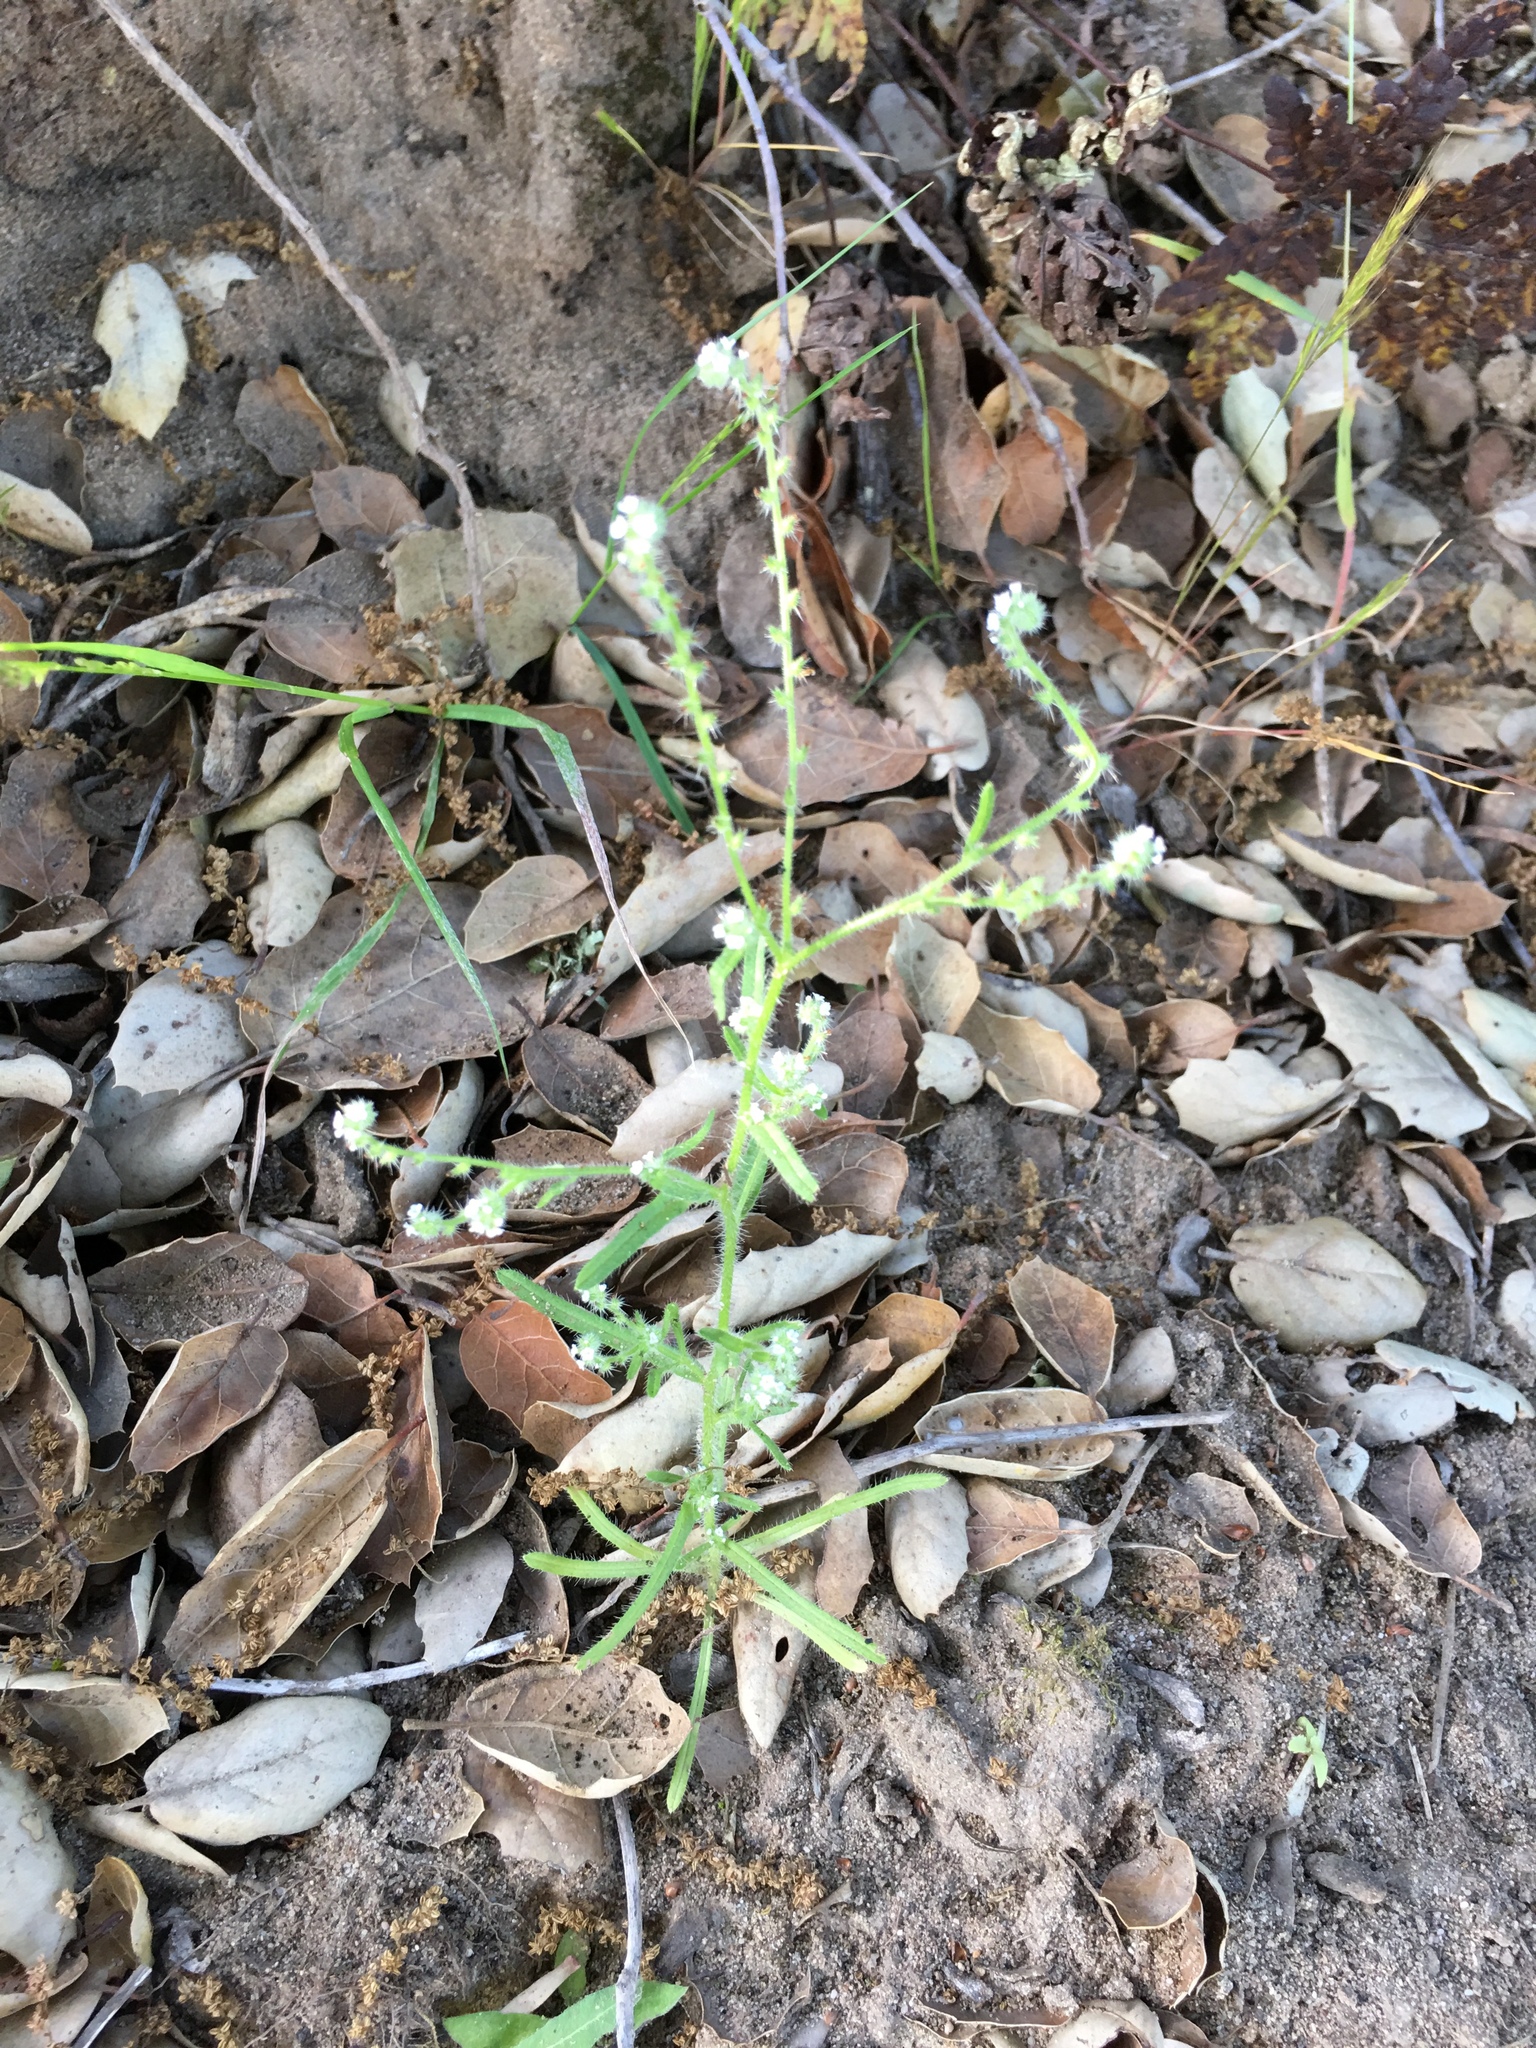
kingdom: Plantae
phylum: Tracheophyta
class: Magnoliopsida
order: Boraginales
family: Boraginaceae
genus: Johnstonella
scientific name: Johnstonella micromeres
